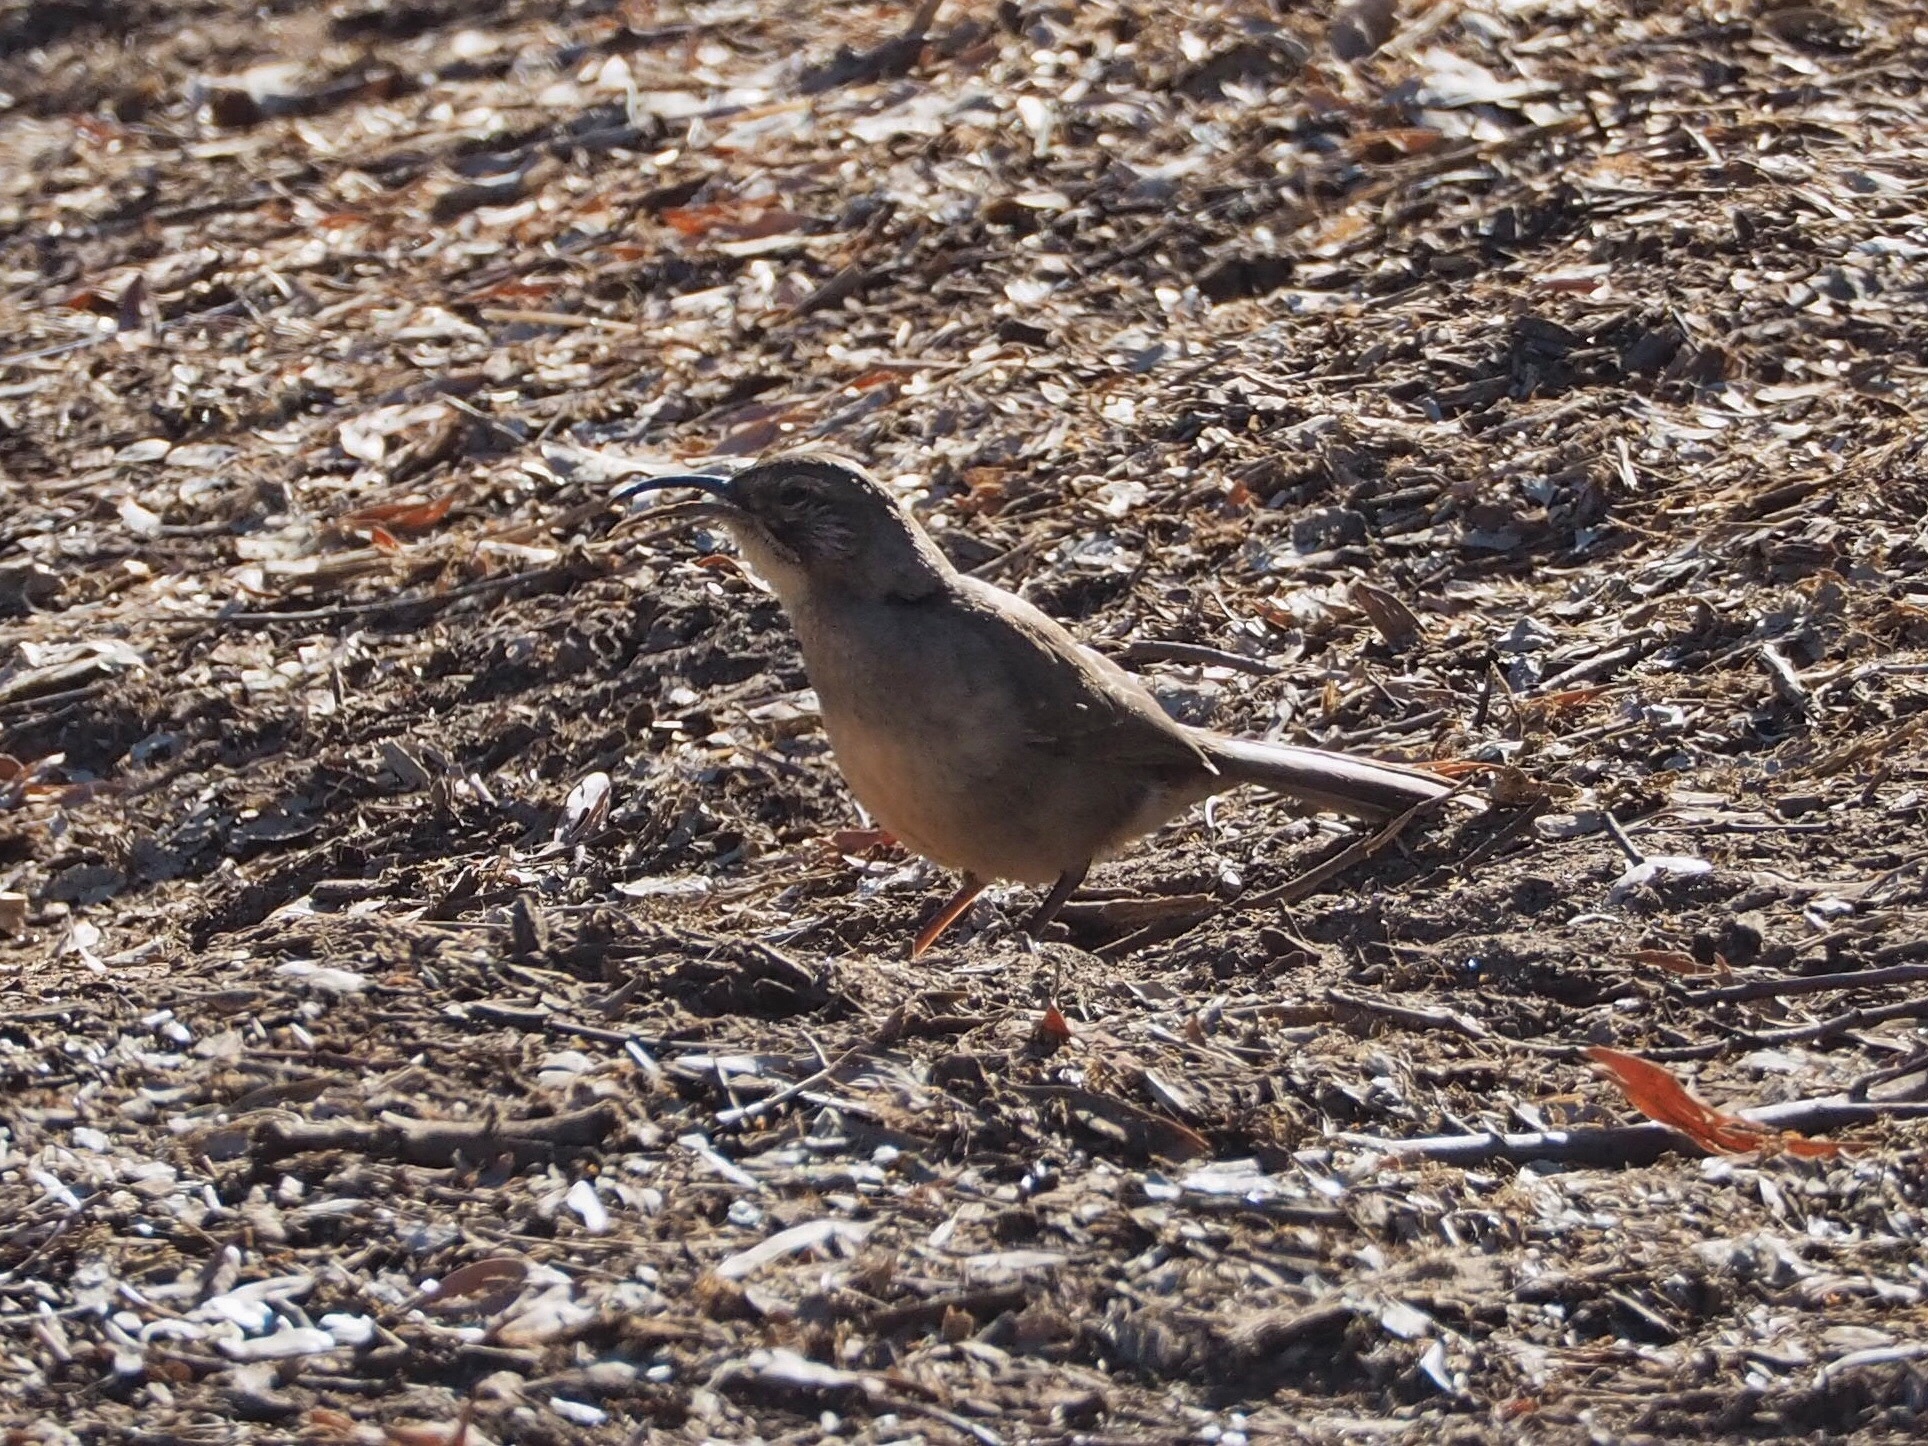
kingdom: Animalia
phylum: Chordata
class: Aves
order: Passeriformes
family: Mimidae
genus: Toxostoma
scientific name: Toxostoma redivivum
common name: California thrasher
